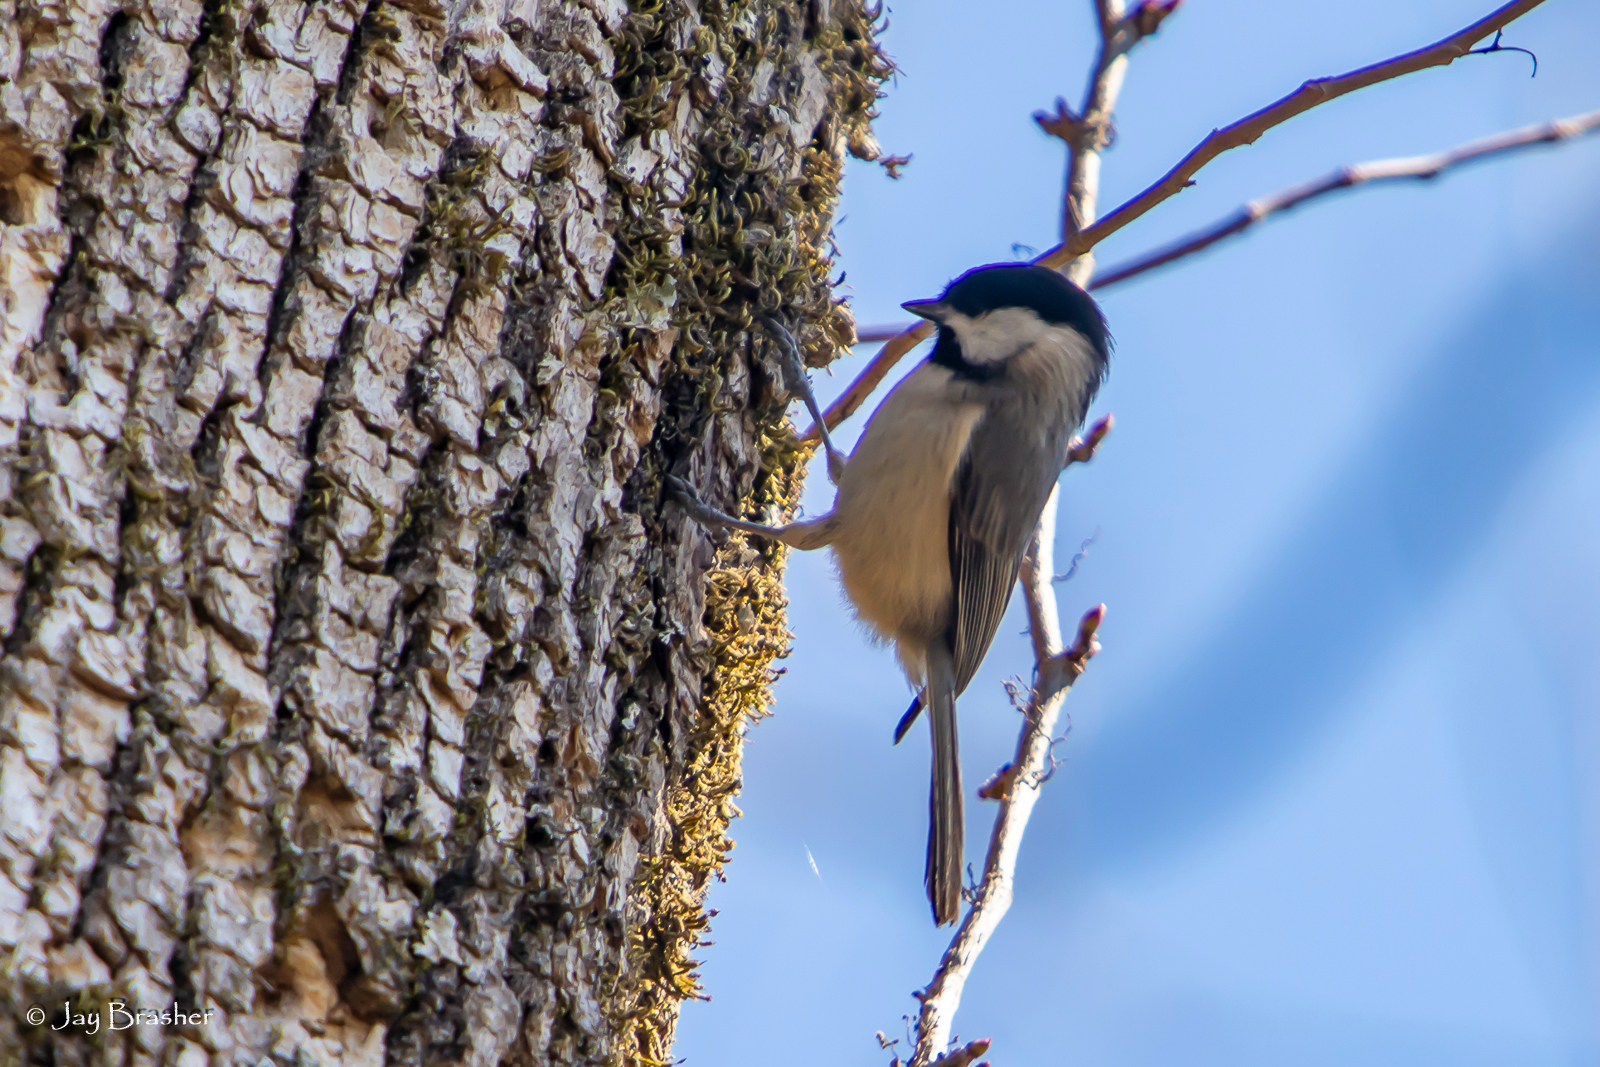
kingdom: Animalia
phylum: Chordata
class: Aves
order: Passeriformes
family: Paridae
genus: Poecile
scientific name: Poecile carolinensis
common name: Carolina chickadee
